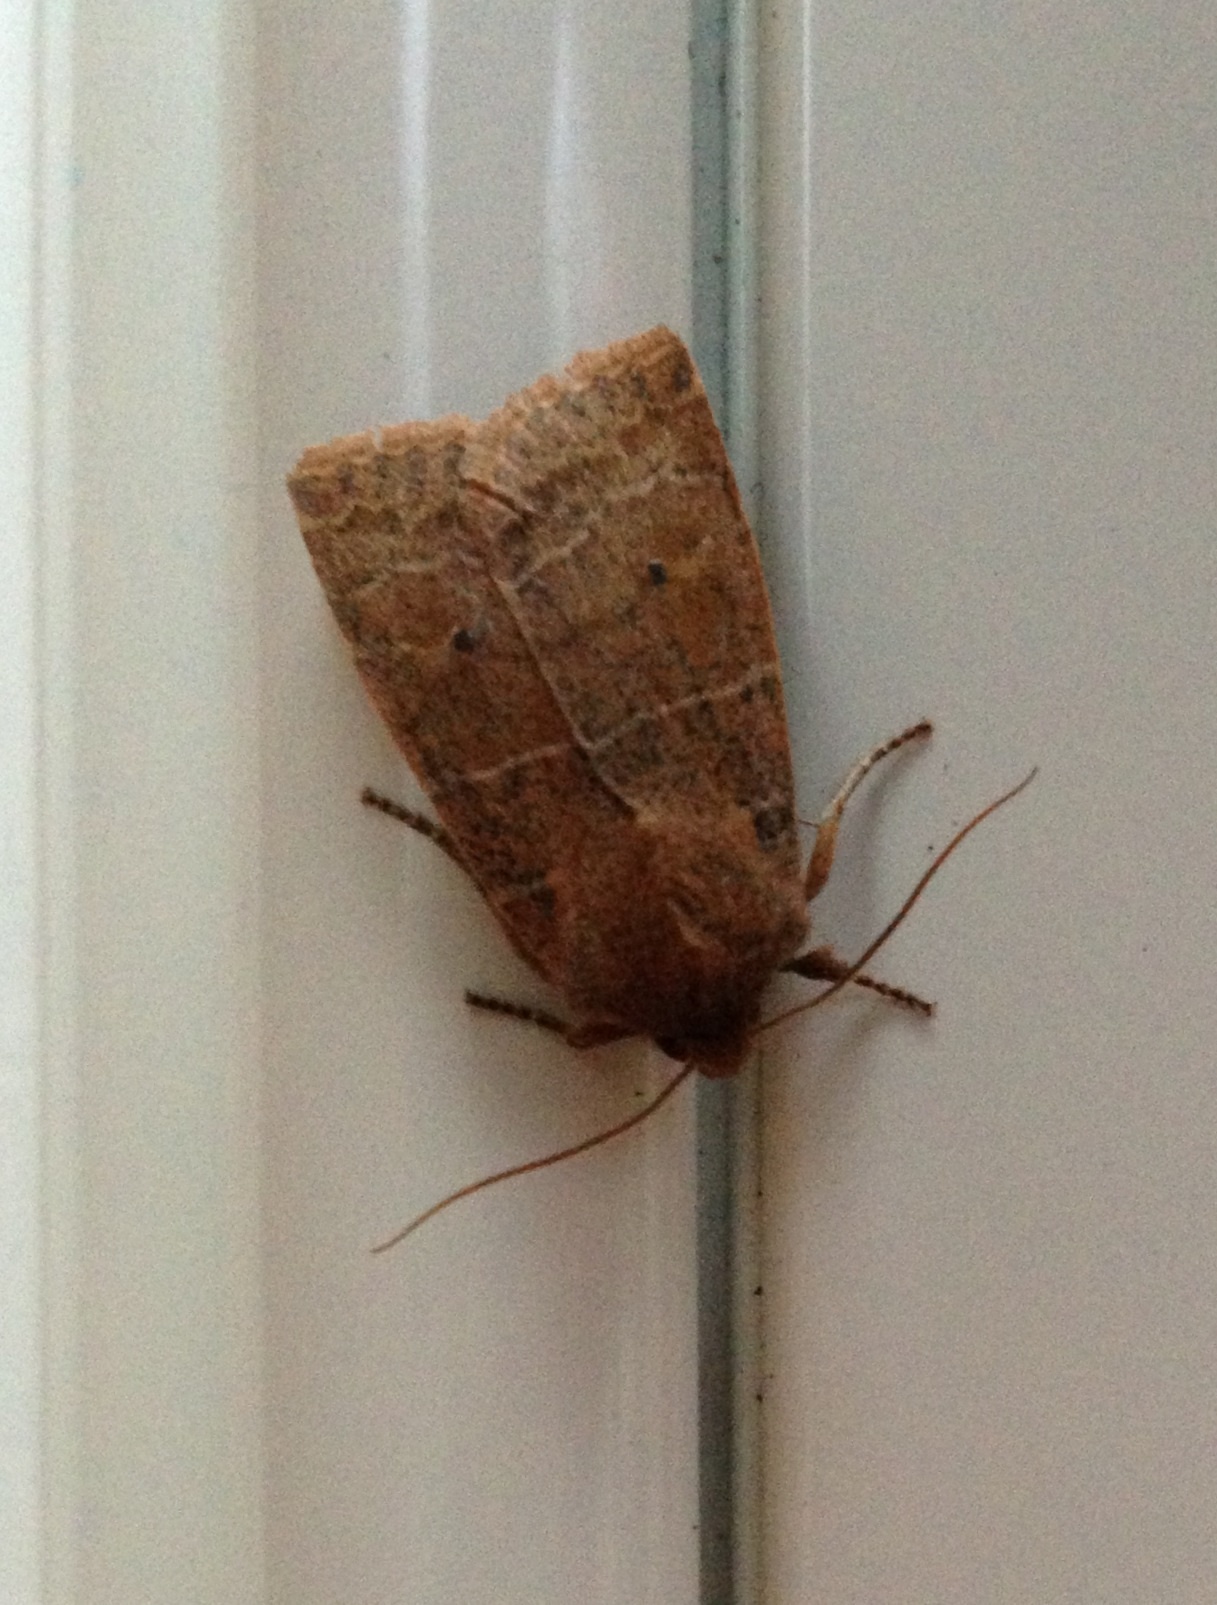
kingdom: Animalia
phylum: Arthropoda
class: Insecta
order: Lepidoptera
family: Noctuidae
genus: Eupsilia
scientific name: Eupsilia morrisoni
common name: Morrison's sallow
